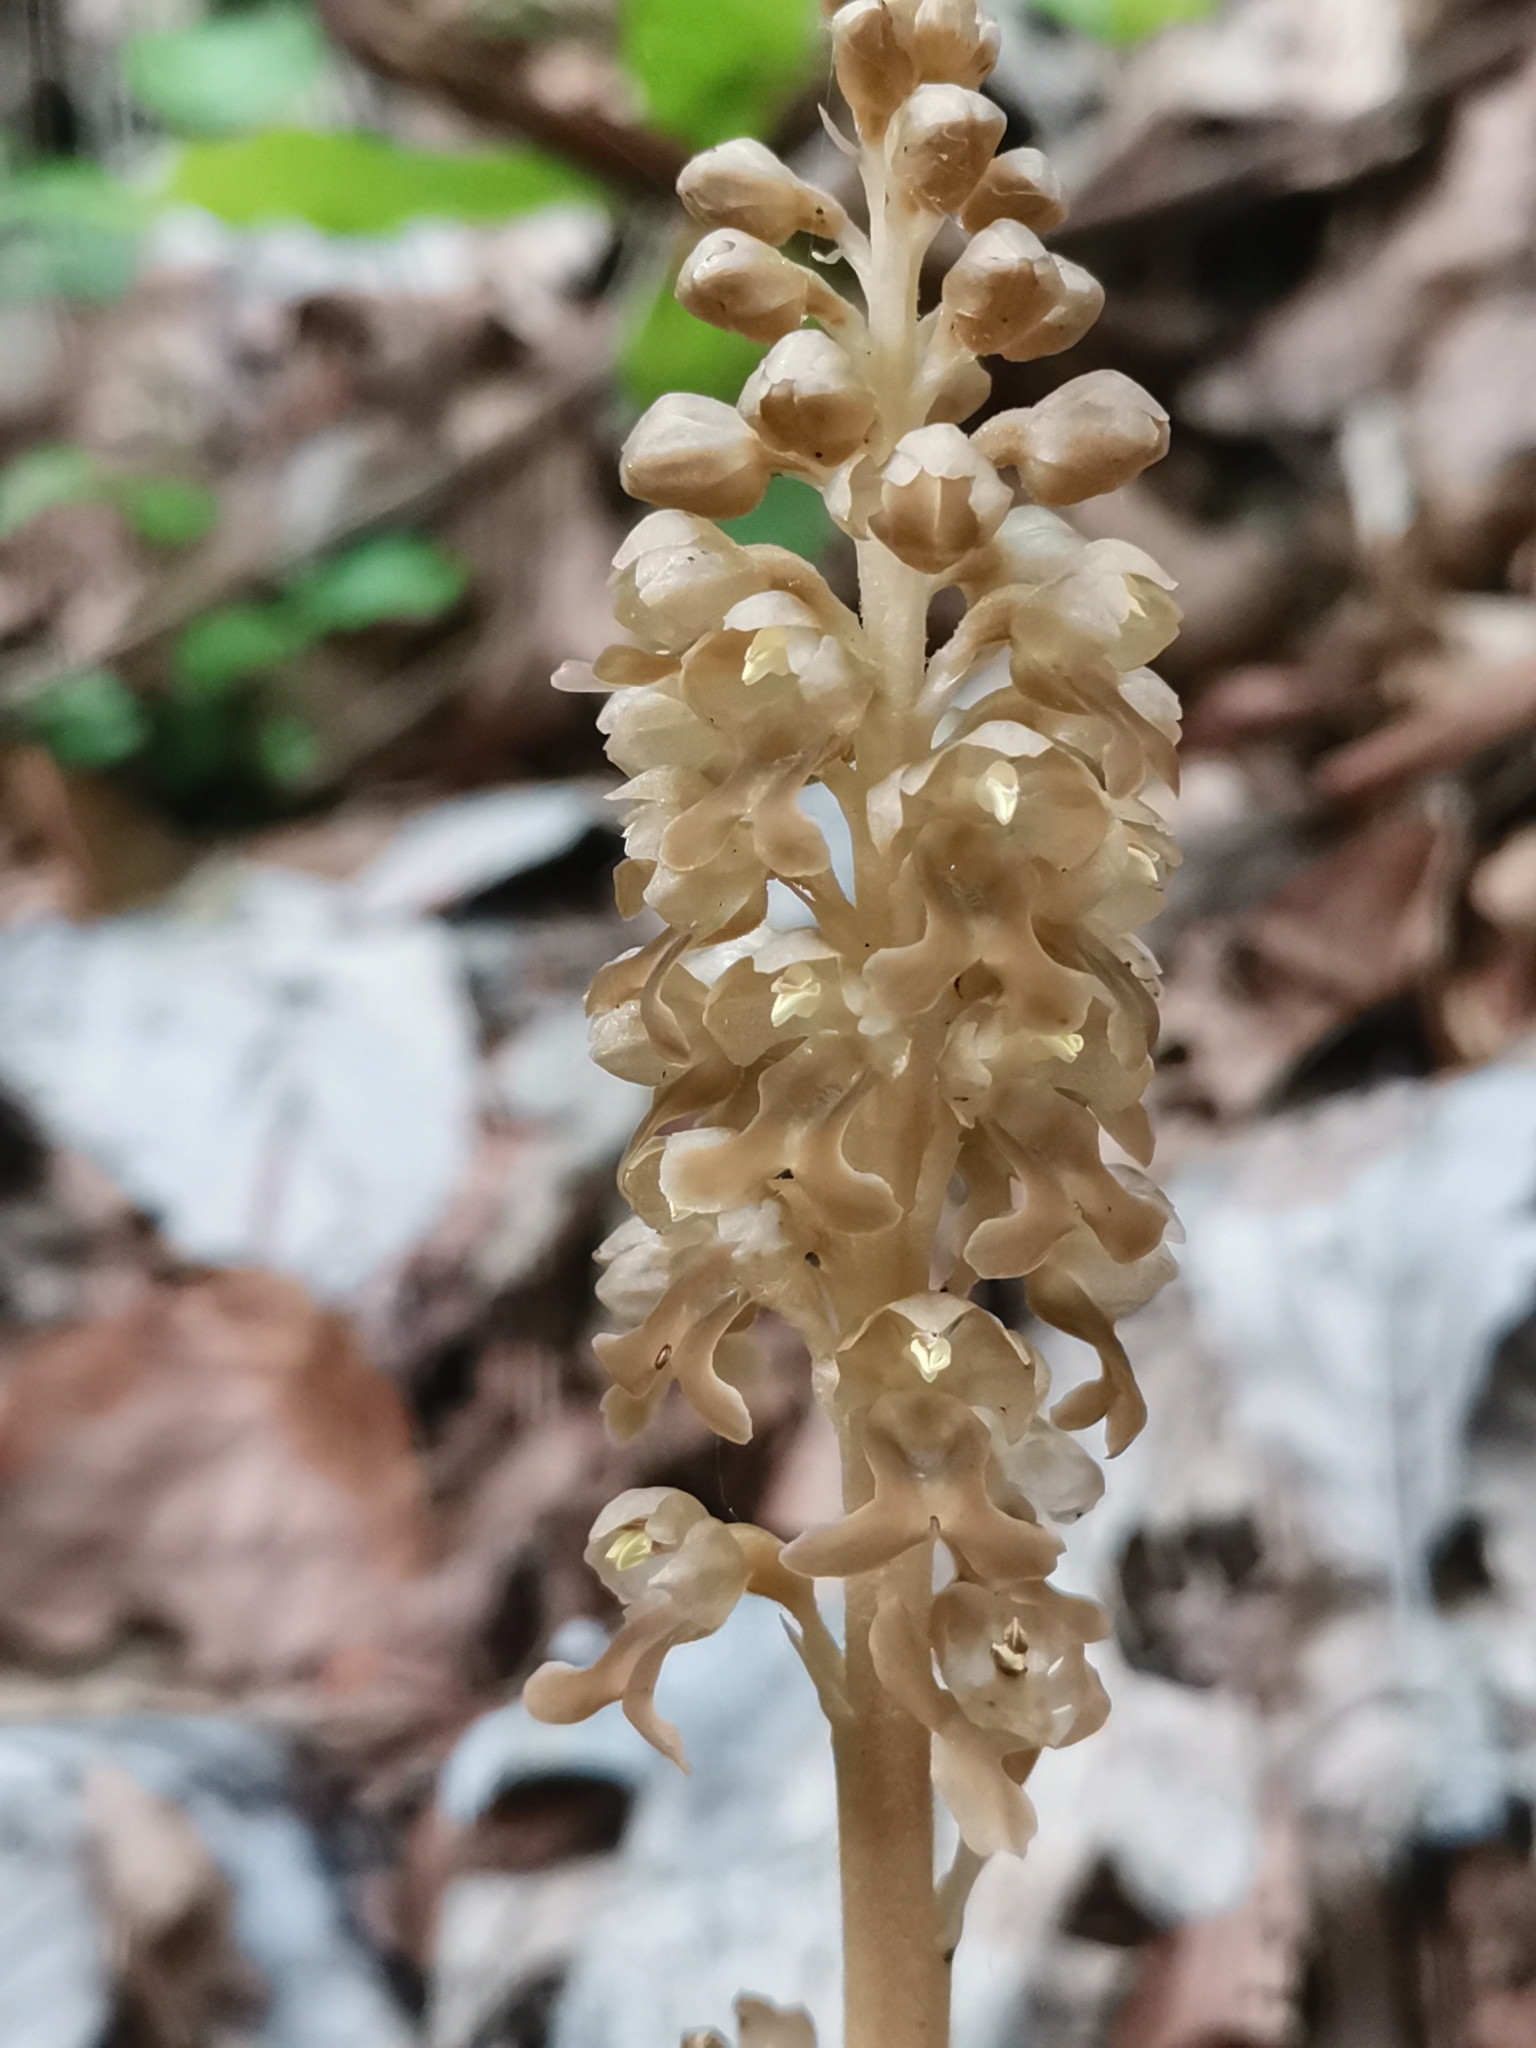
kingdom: Plantae
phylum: Tracheophyta
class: Liliopsida
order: Asparagales
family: Orchidaceae
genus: Neottia
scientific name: Neottia nidus-avis
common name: Bird's-nest orchid
